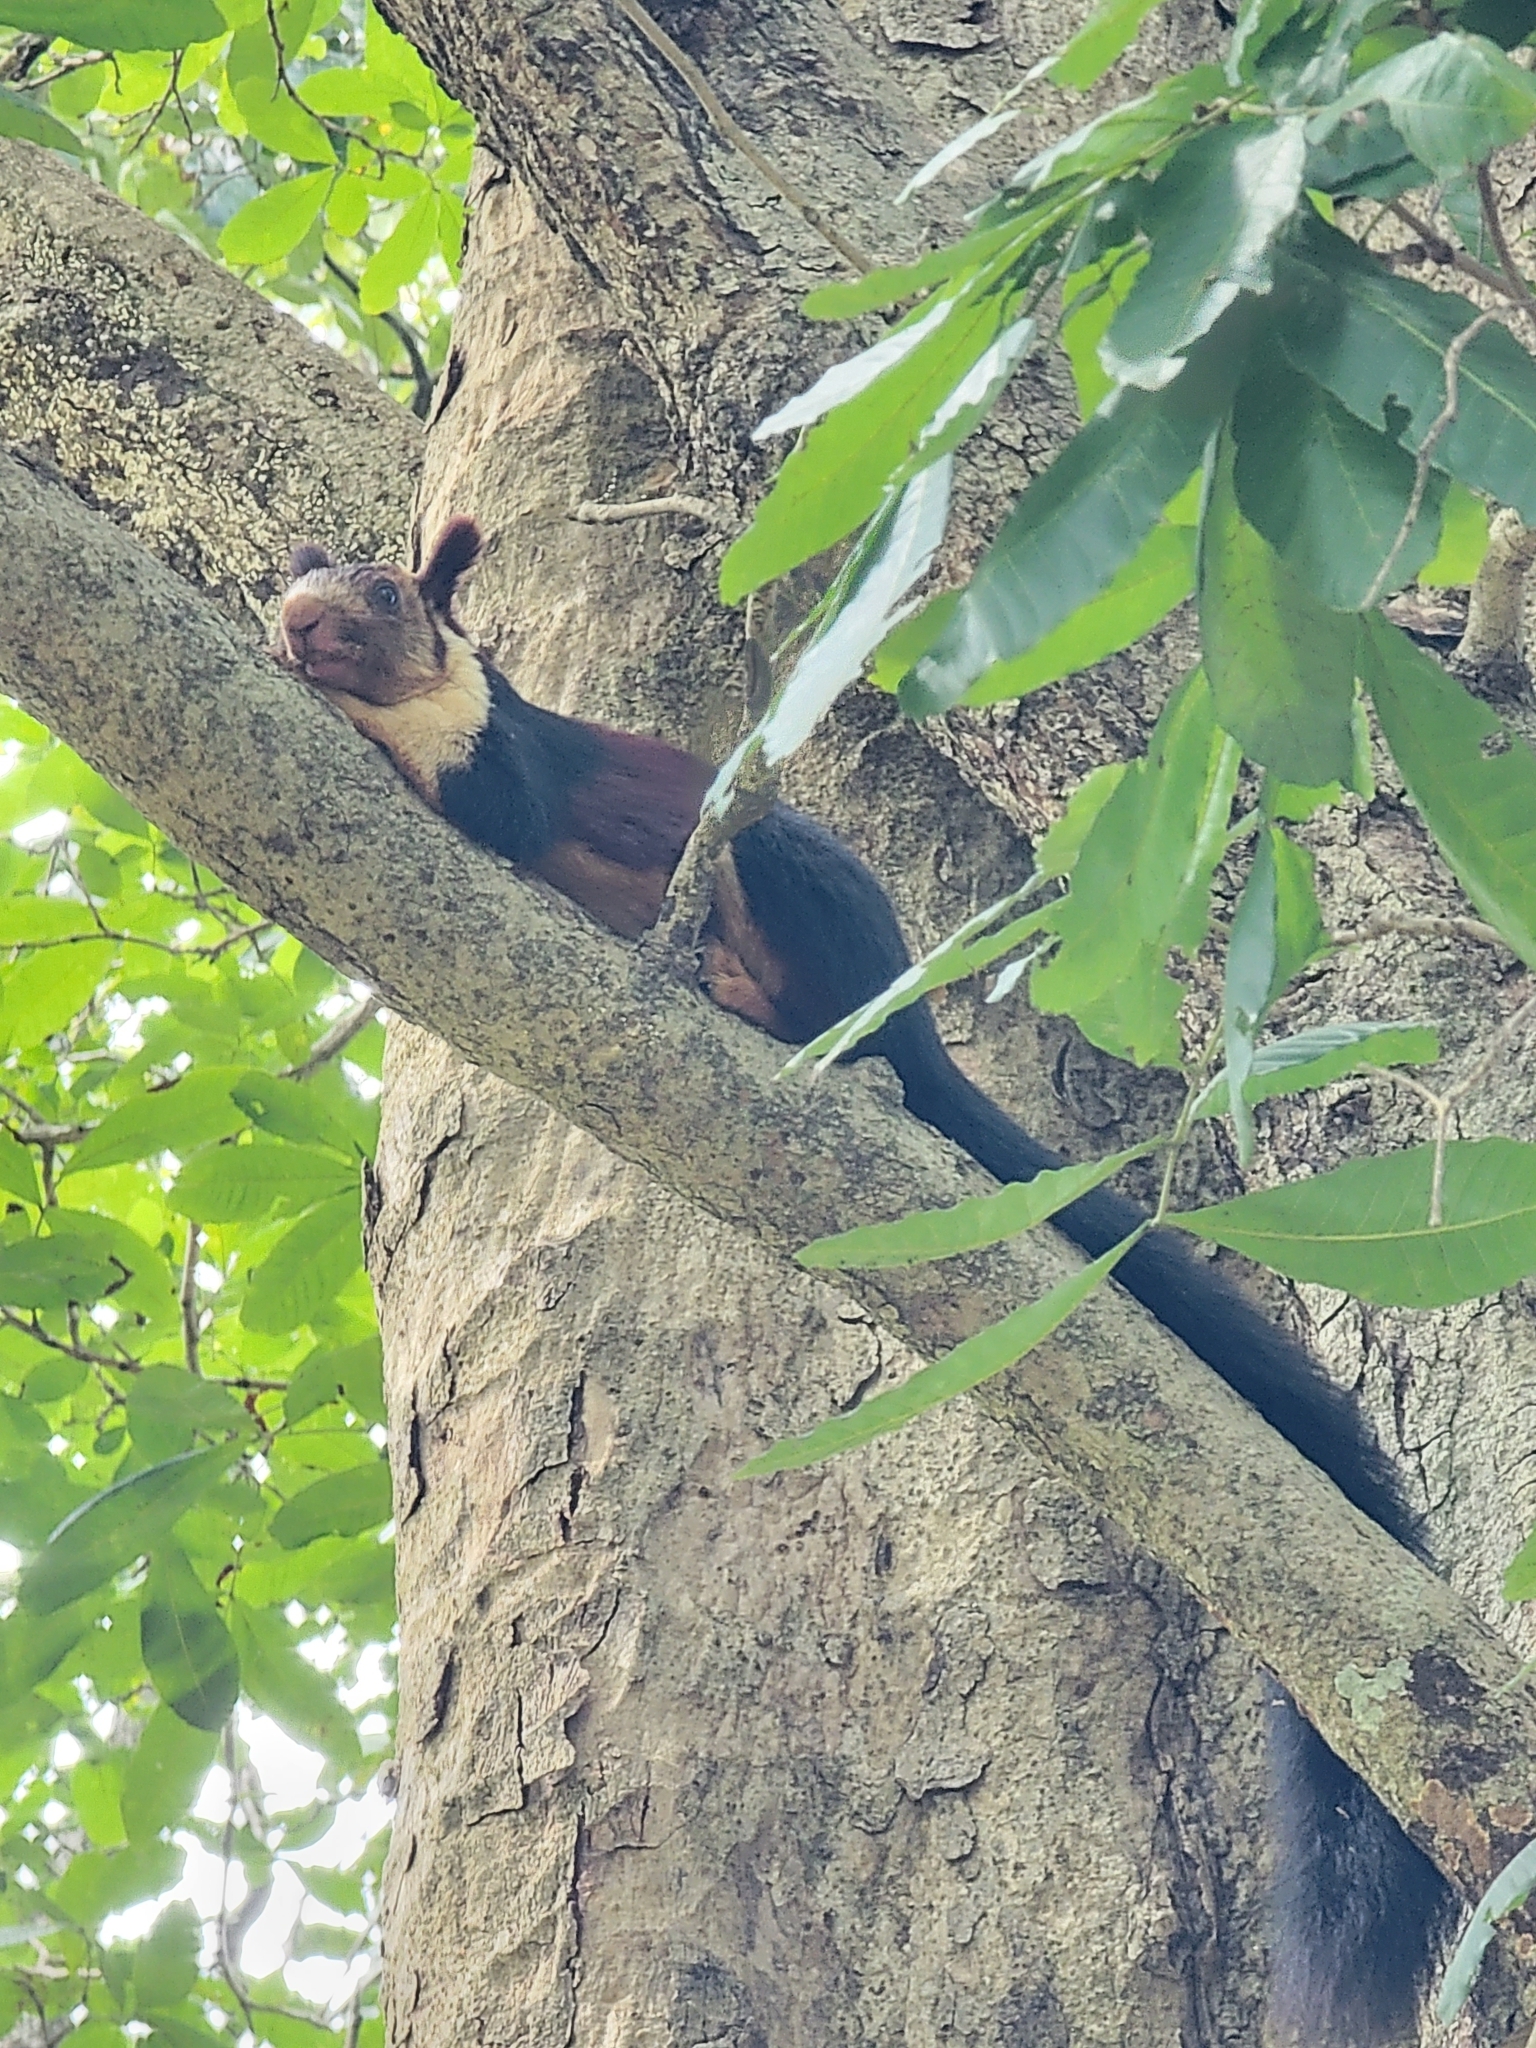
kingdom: Animalia
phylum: Chordata
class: Mammalia
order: Rodentia
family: Sciuridae
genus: Ratufa
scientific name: Ratufa indica
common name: Indian giant squirrel
